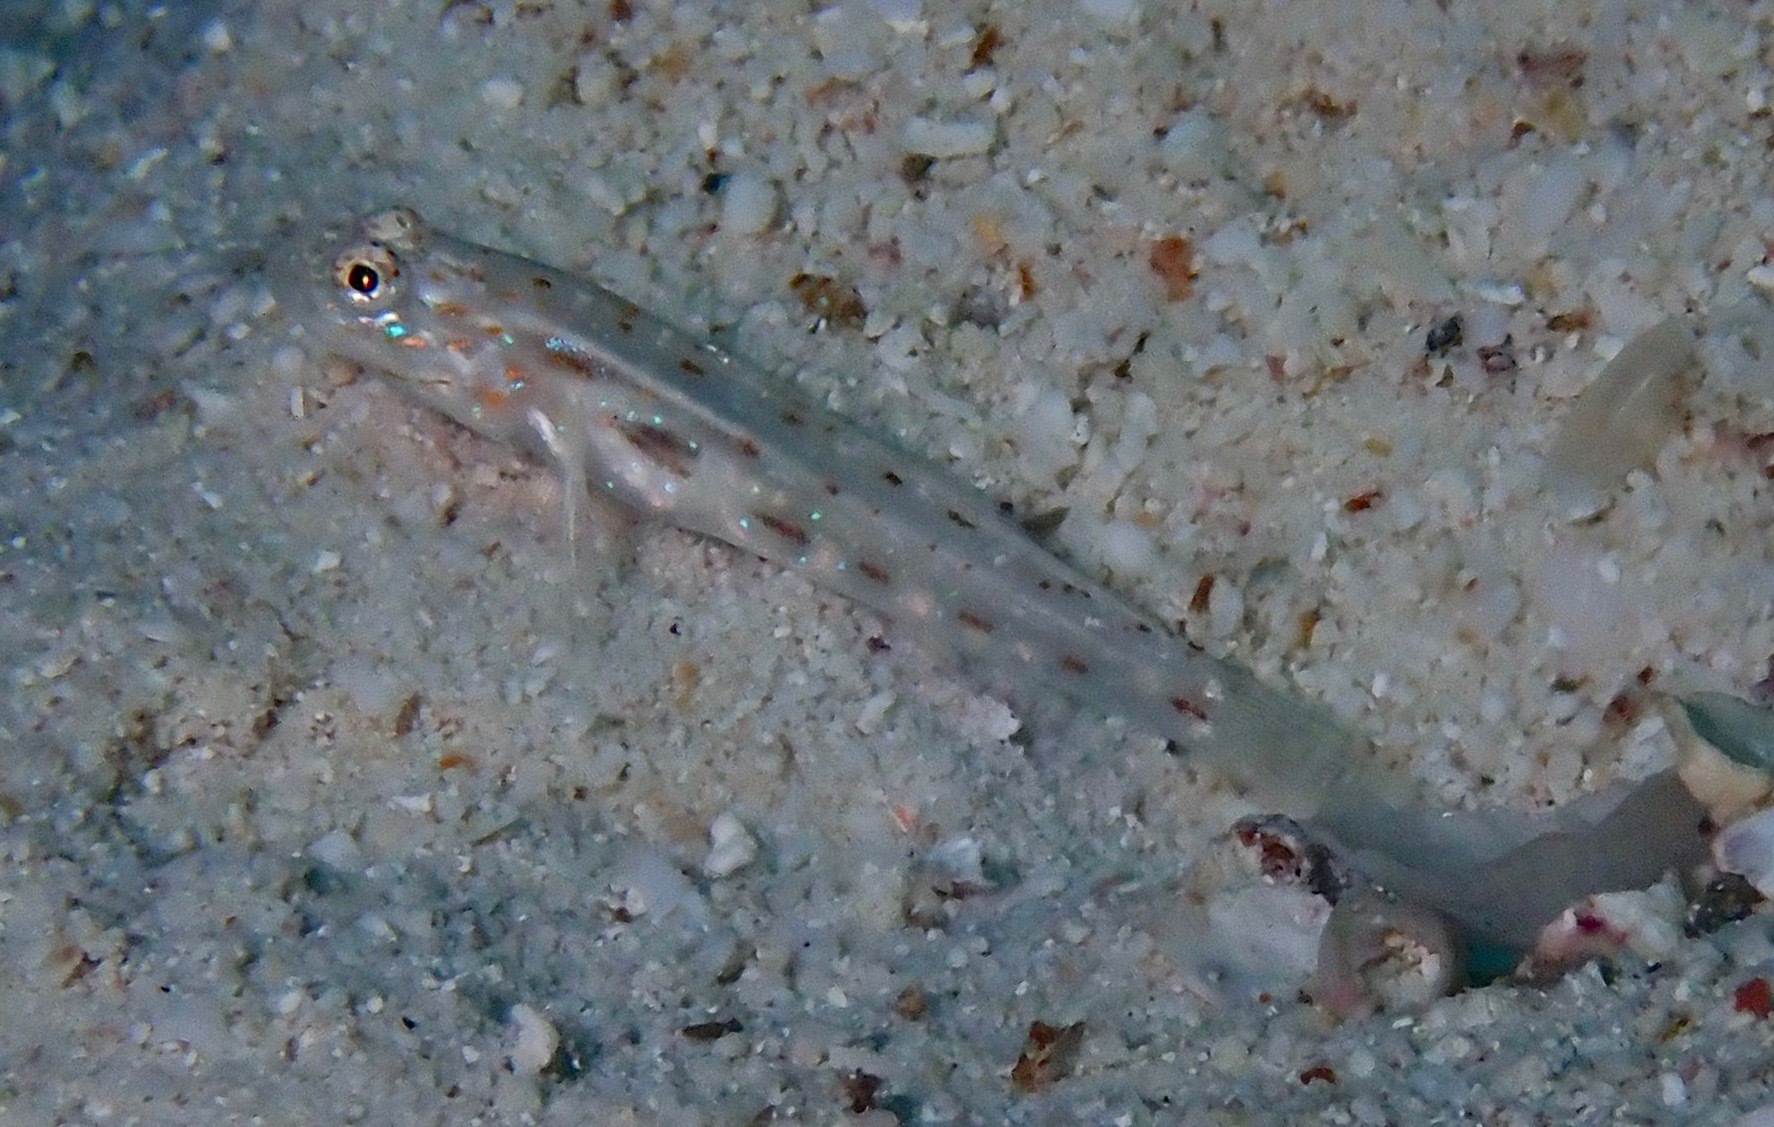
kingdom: Animalia
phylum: Chordata
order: Perciformes
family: Gobiidae
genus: Ctenogobiops
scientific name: Ctenogobiops crocineus
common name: Silverspot shrimpgoby
